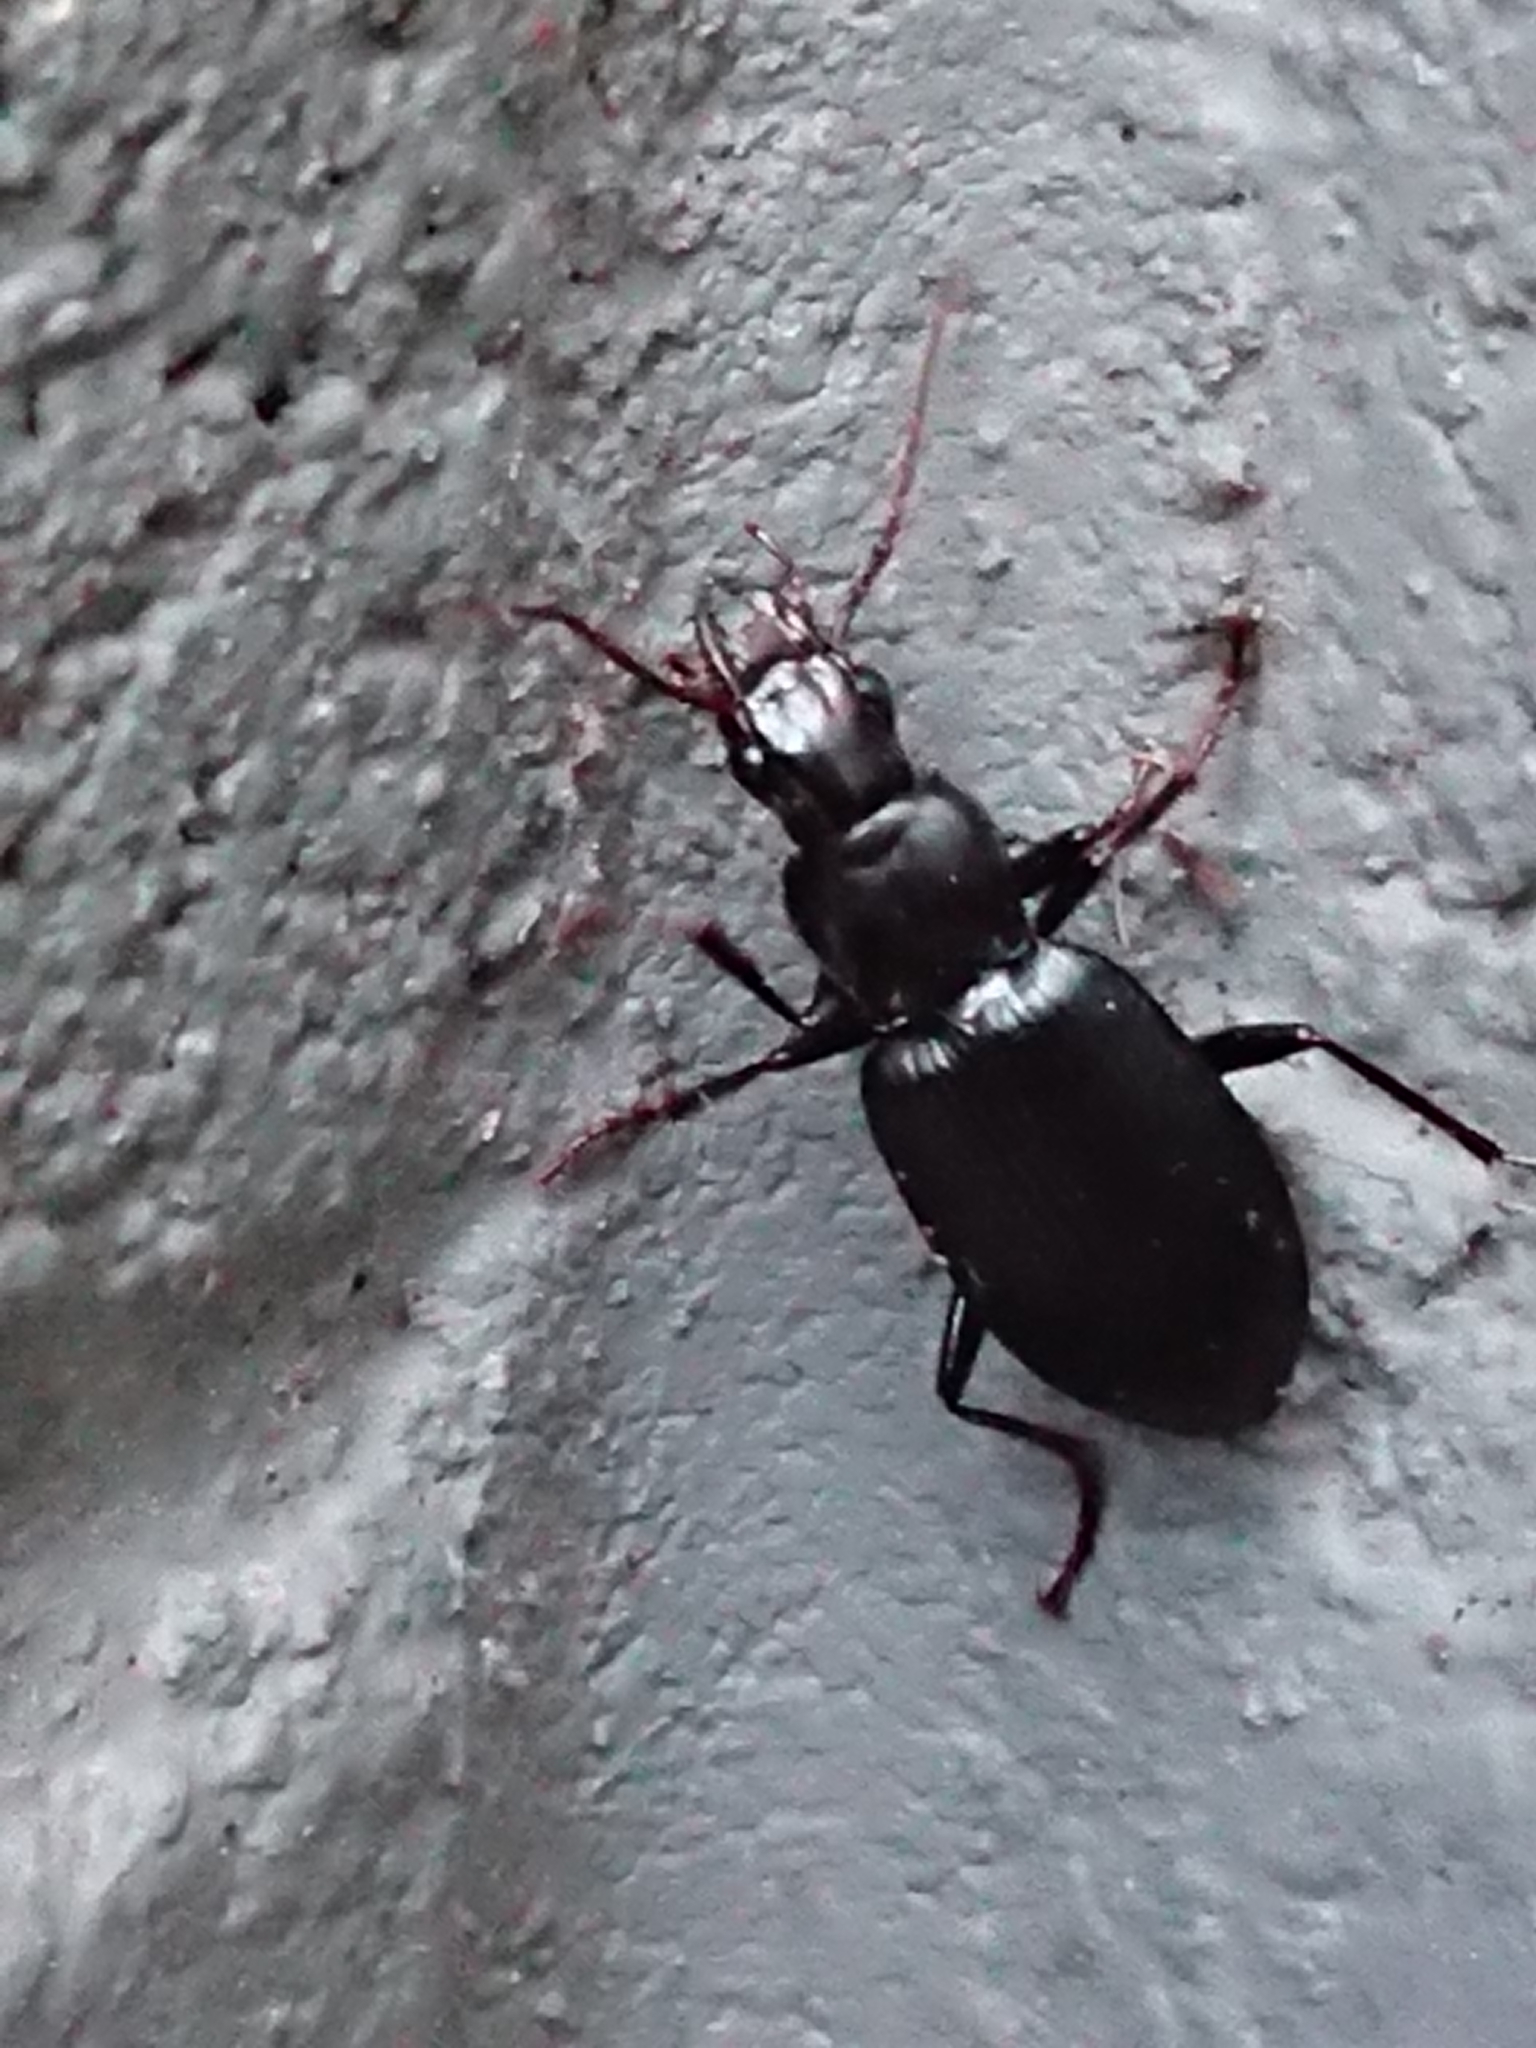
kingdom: Animalia
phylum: Arthropoda
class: Insecta
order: Coleoptera
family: Carabidae
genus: Laemostenus
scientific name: Laemostenus complanatus
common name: Cosmopolitan ground beetle
